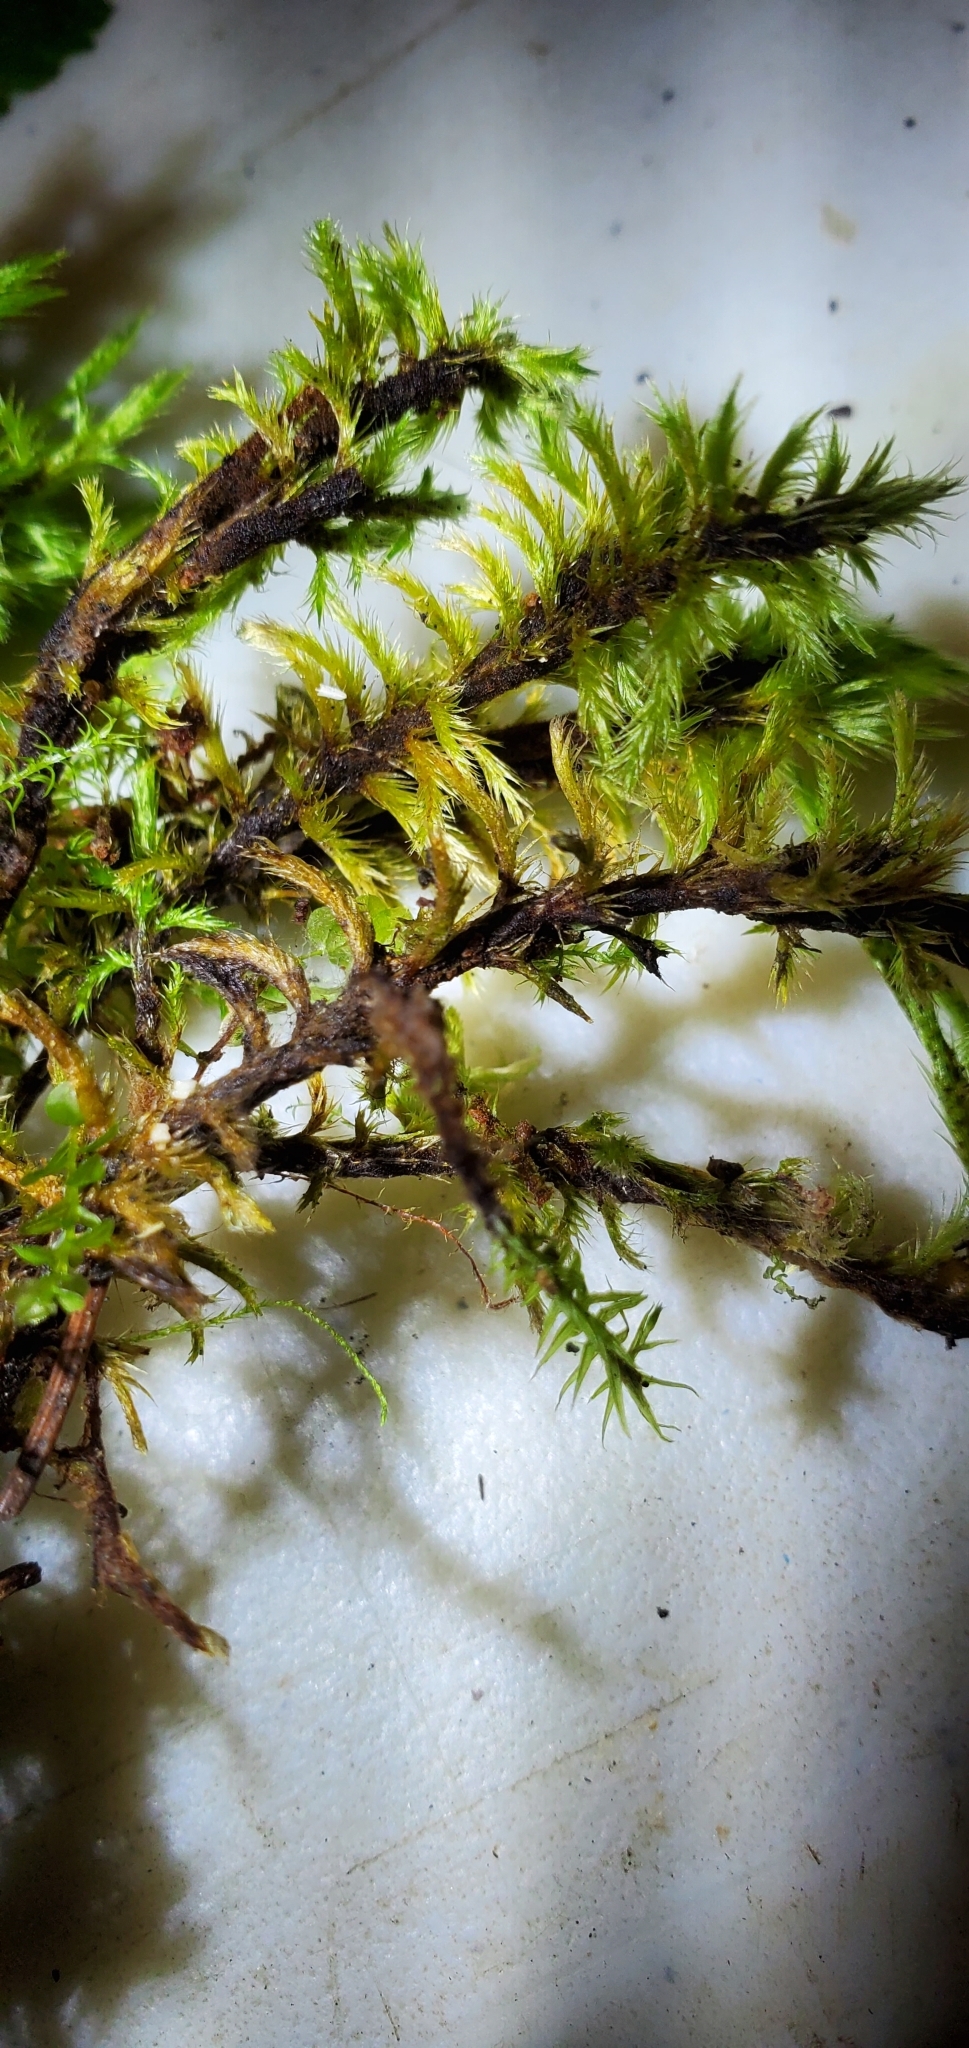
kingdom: Plantae
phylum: Bryophyta
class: Bryopsida
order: Hypnales
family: Amblystegiaceae
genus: Tomentypnum
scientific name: Tomentypnum nitens
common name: Golden fuzzy fen moss
